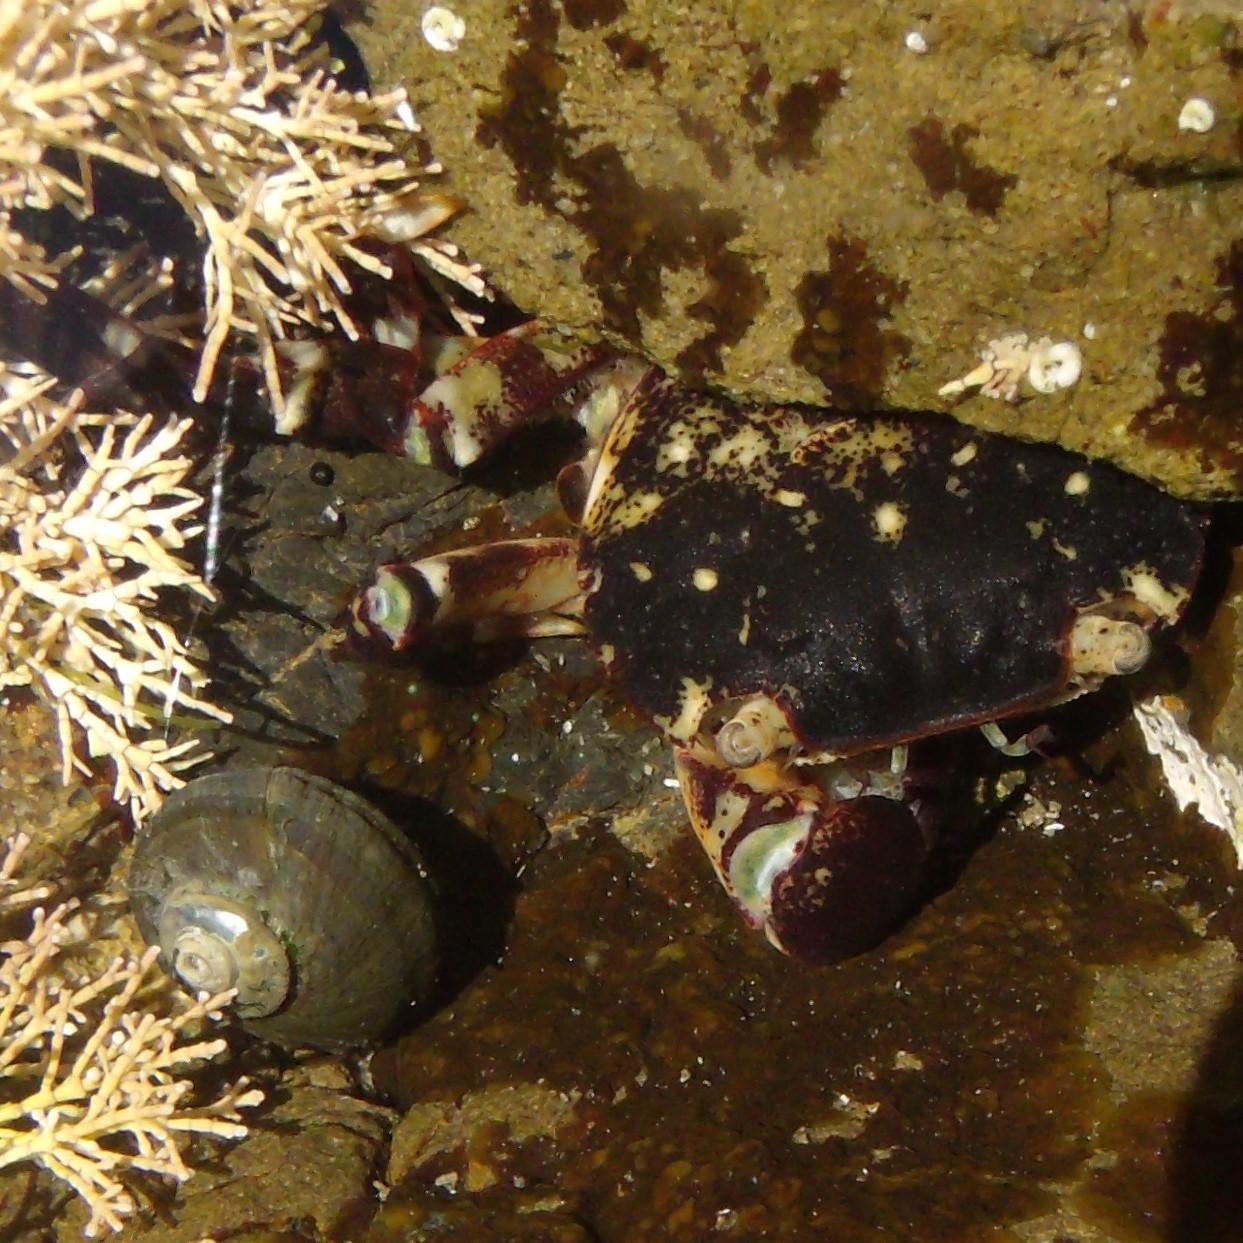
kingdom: Animalia
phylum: Arthropoda
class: Malacostraca
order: Decapoda
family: Varunidae
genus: Hemigrapsus
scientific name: Hemigrapsus sexdentatus
